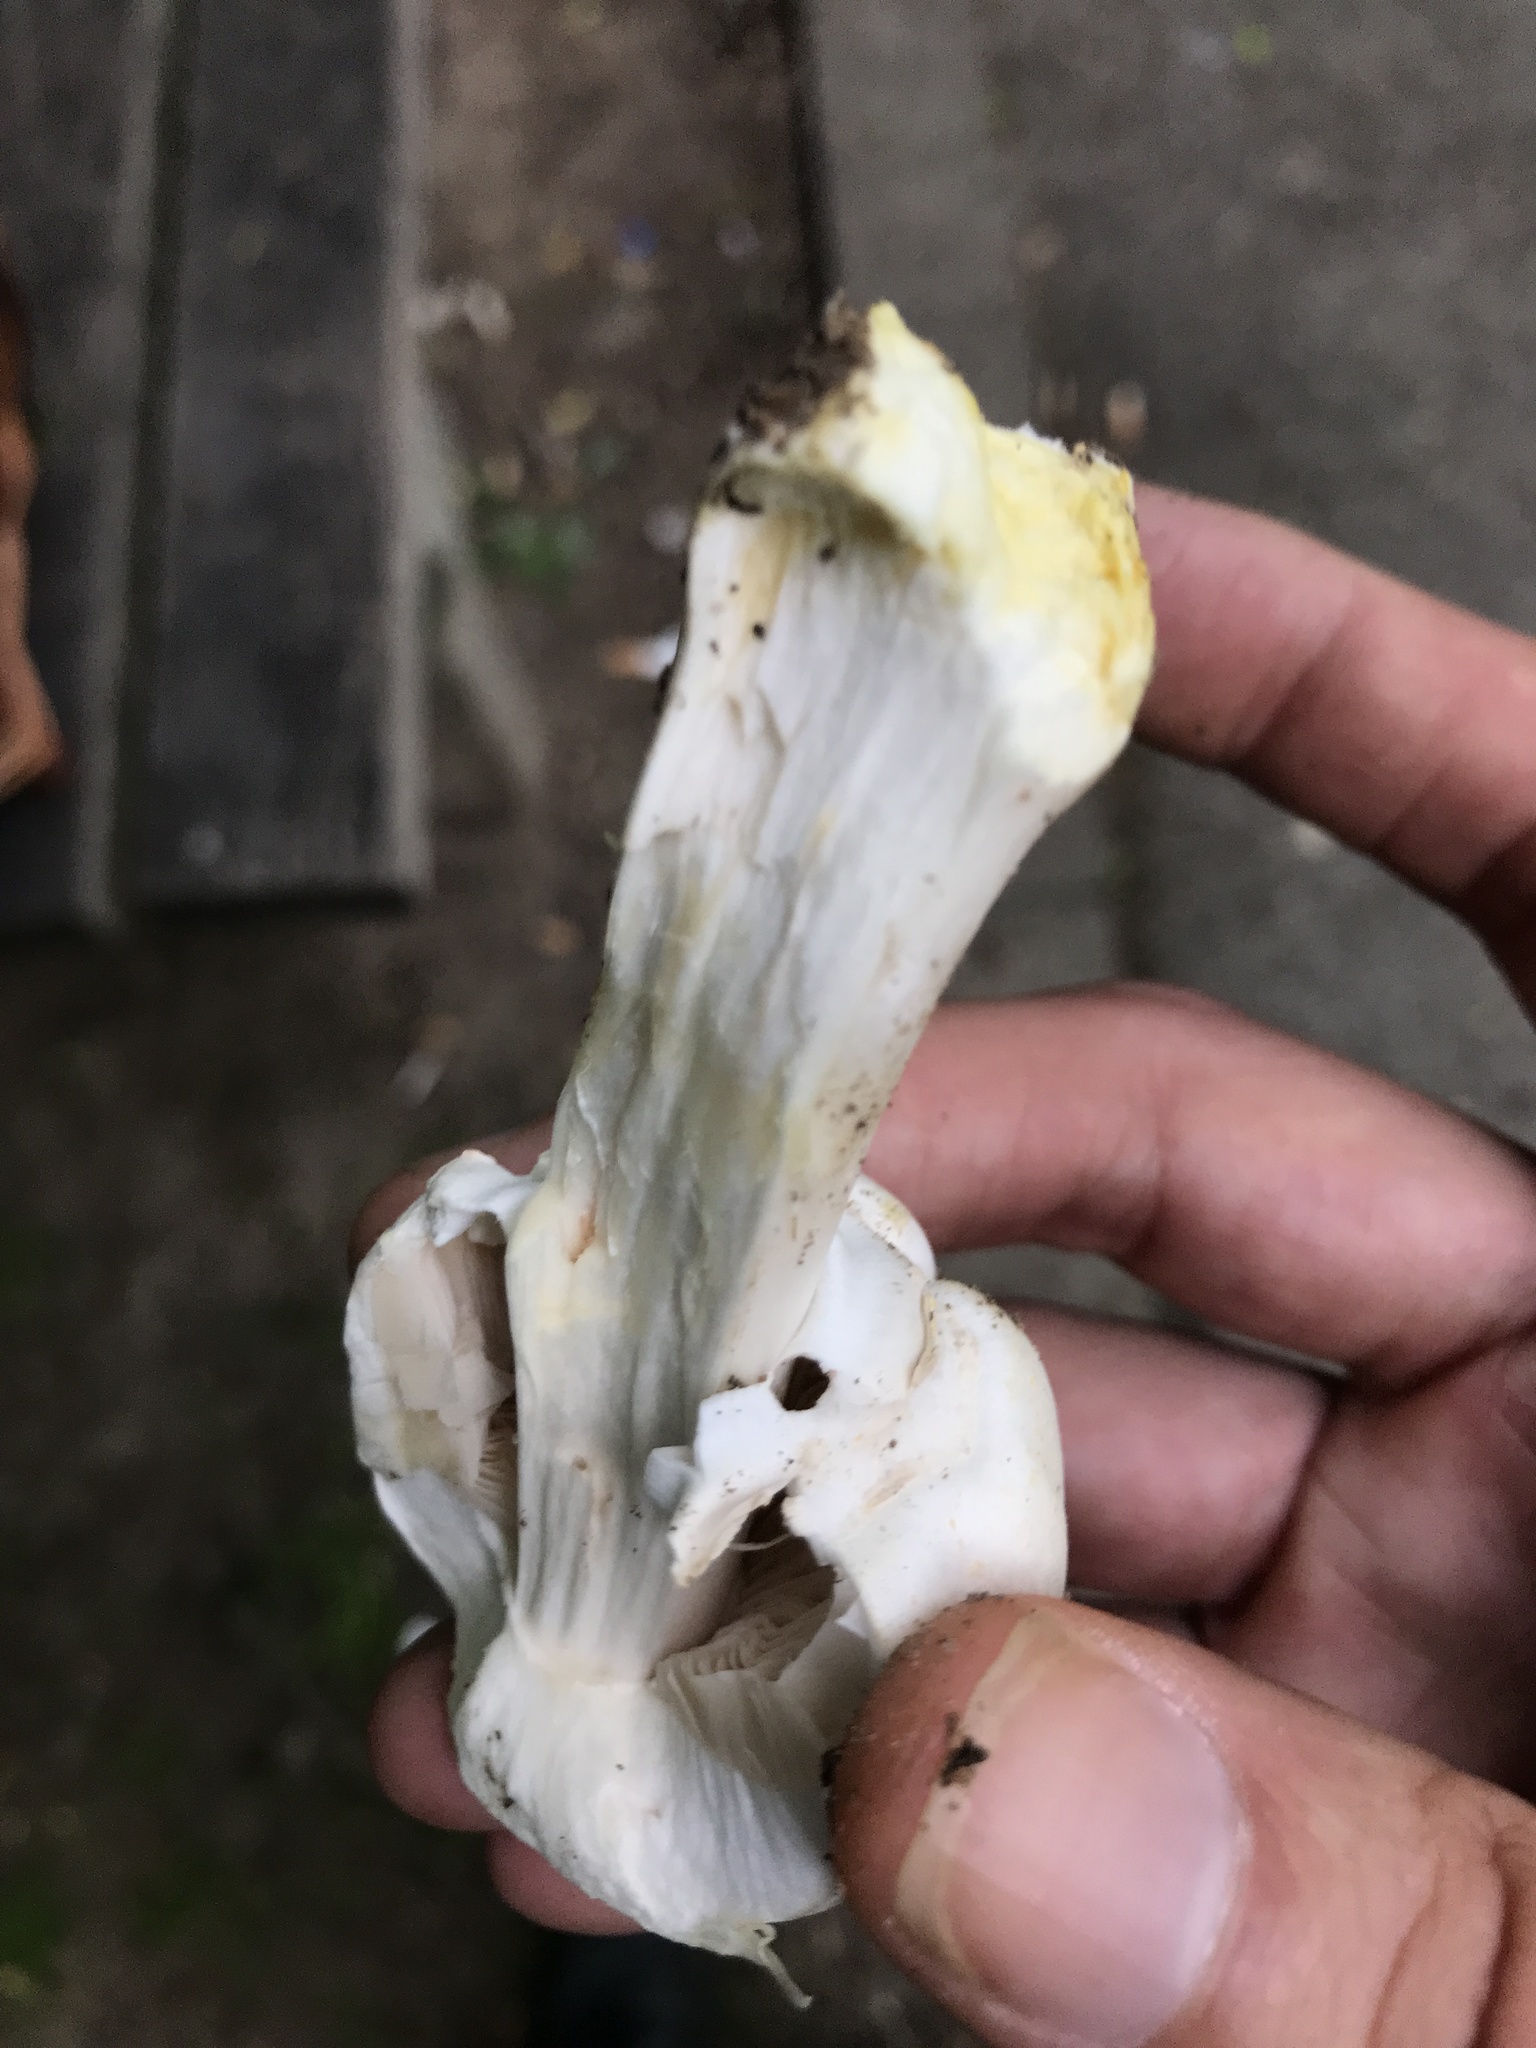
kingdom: Fungi
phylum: Basidiomycota
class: Agaricomycetes
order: Agaricales
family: Agaricaceae
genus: Agaricus
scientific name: Agaricus xanthodermus
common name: Yellow stainer
